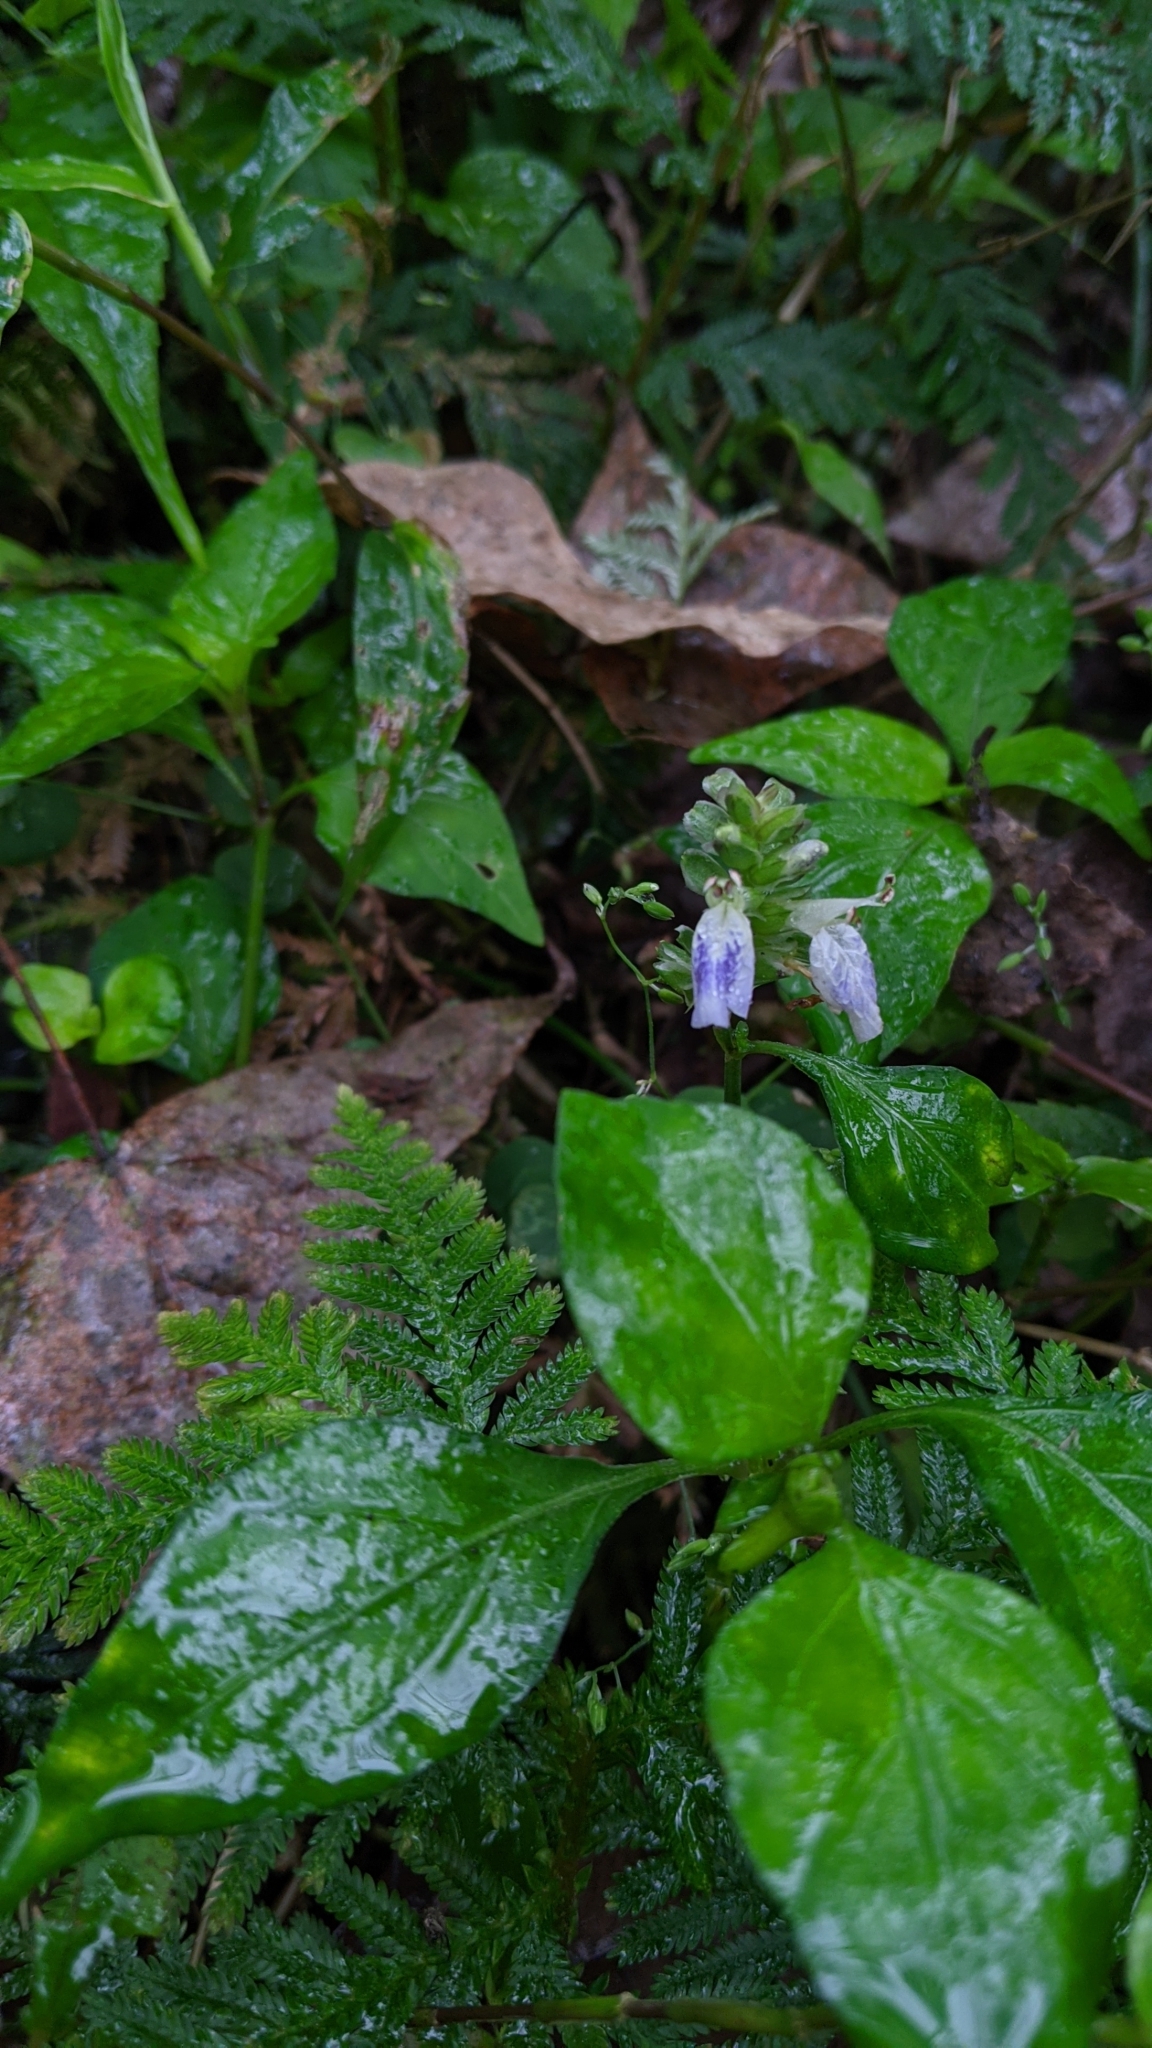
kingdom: Plantae
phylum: Tracheophyta
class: Magnoliopsida
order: Lamiales
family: Acanthaceae
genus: Rungia
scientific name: Rungia chinensis
